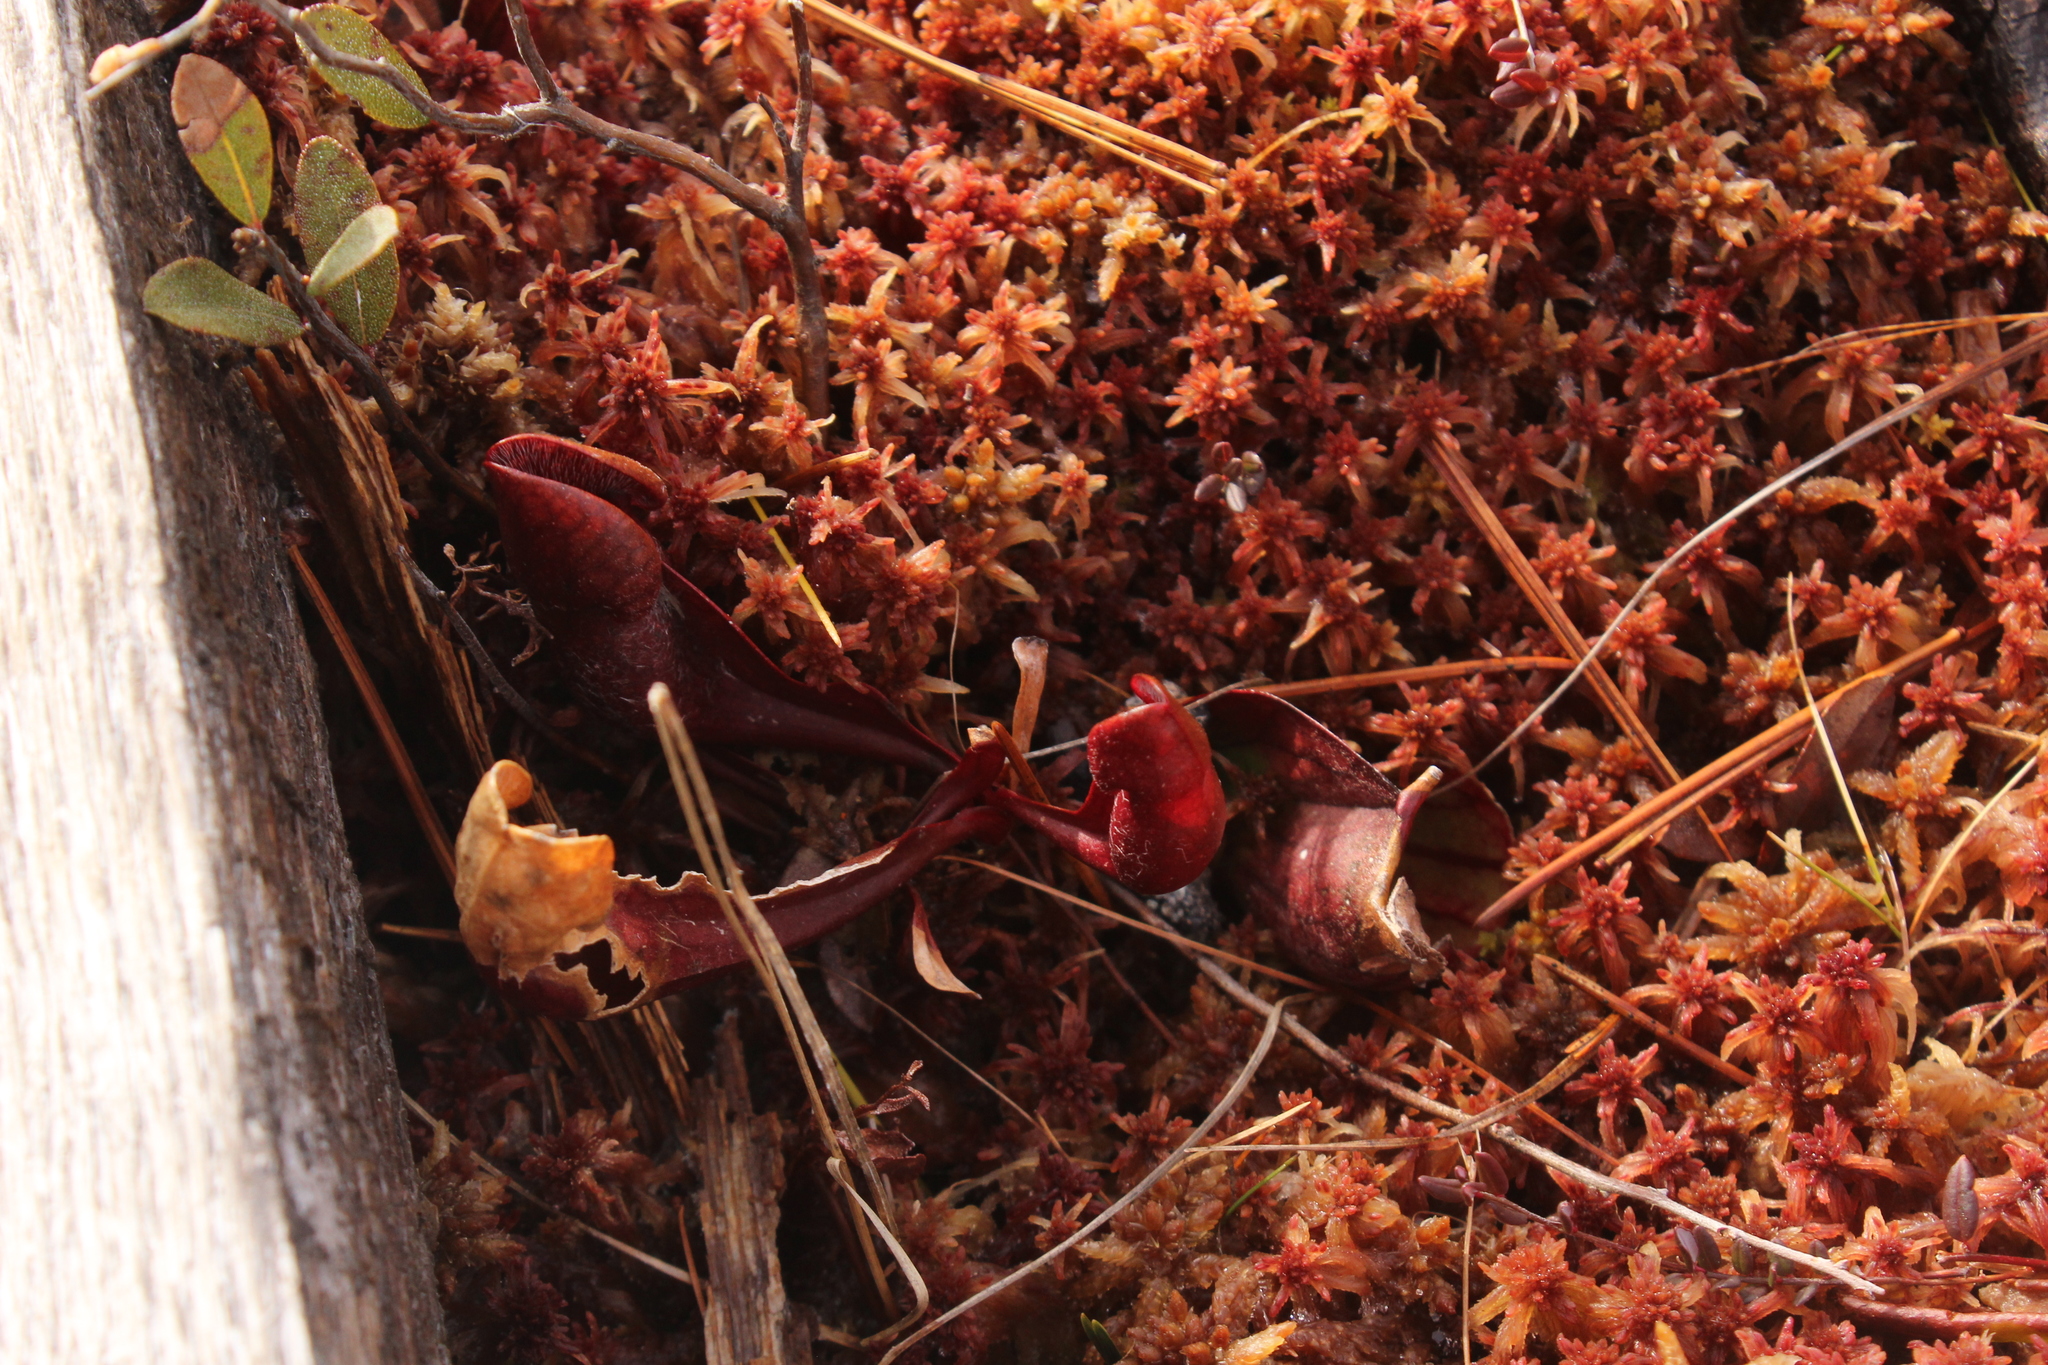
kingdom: Plantae
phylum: Tracheophyta
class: Magnoliopsida
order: Ericales
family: Sarraceniaceae
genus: Sarracenia
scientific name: Sarracenia purpurea
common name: Pitcherplant
